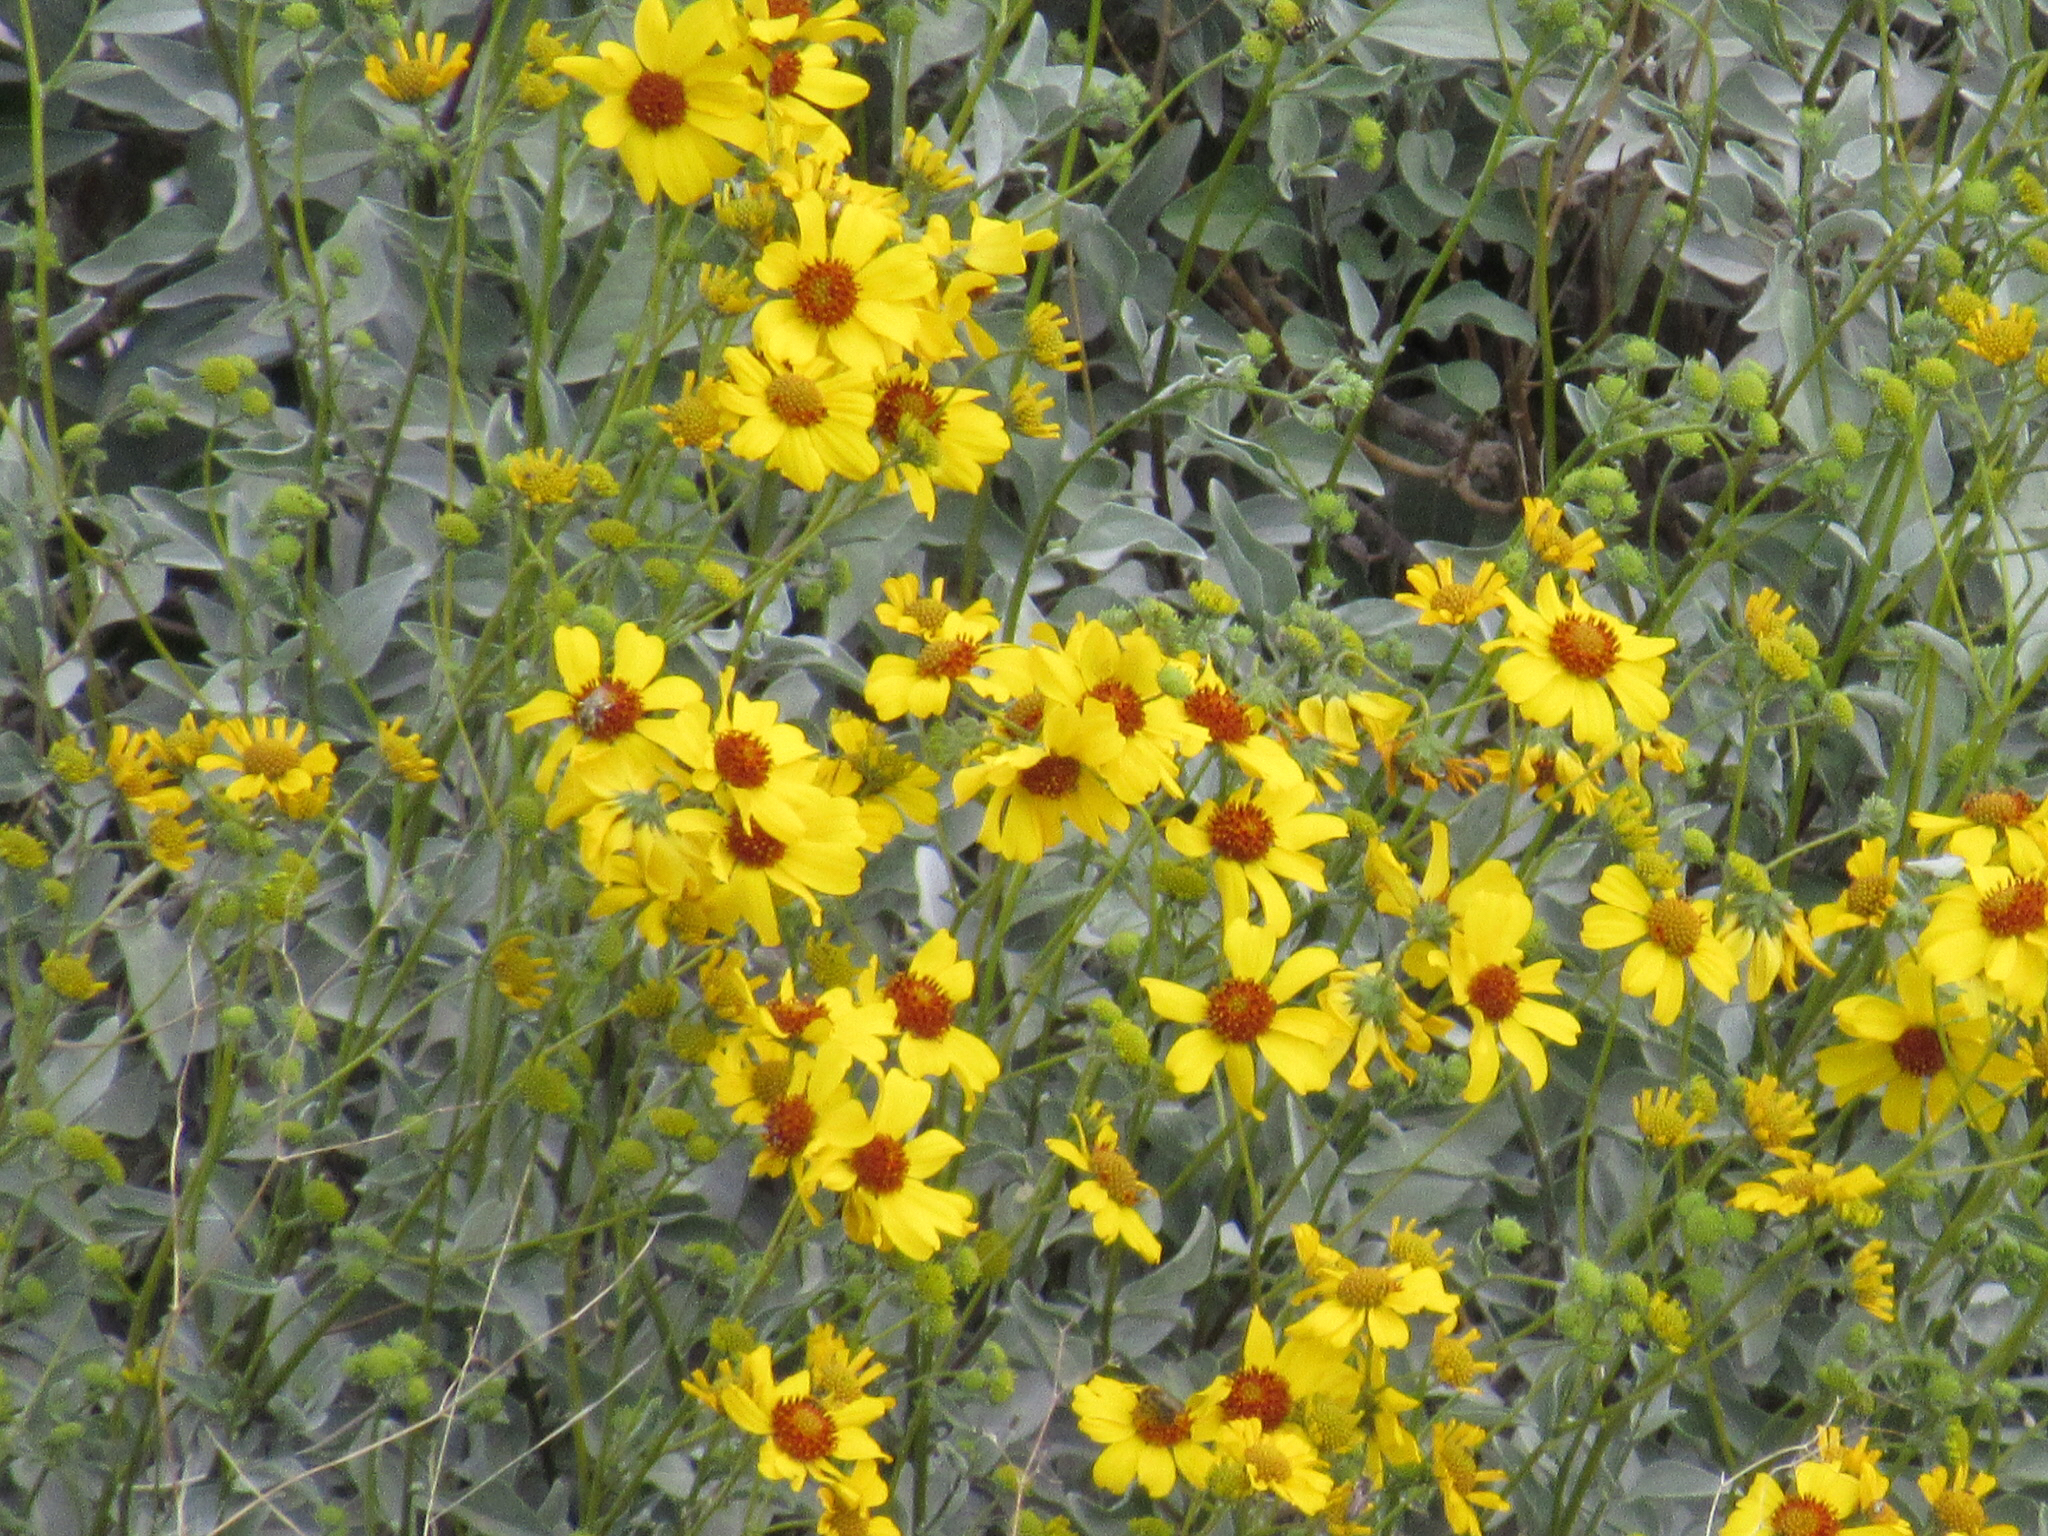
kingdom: Plantae
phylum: Tracheophyta
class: Magnoliopsida
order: Asterales
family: Asteraceae
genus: Encelia
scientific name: Encelia farinosa
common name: Brittlebush
